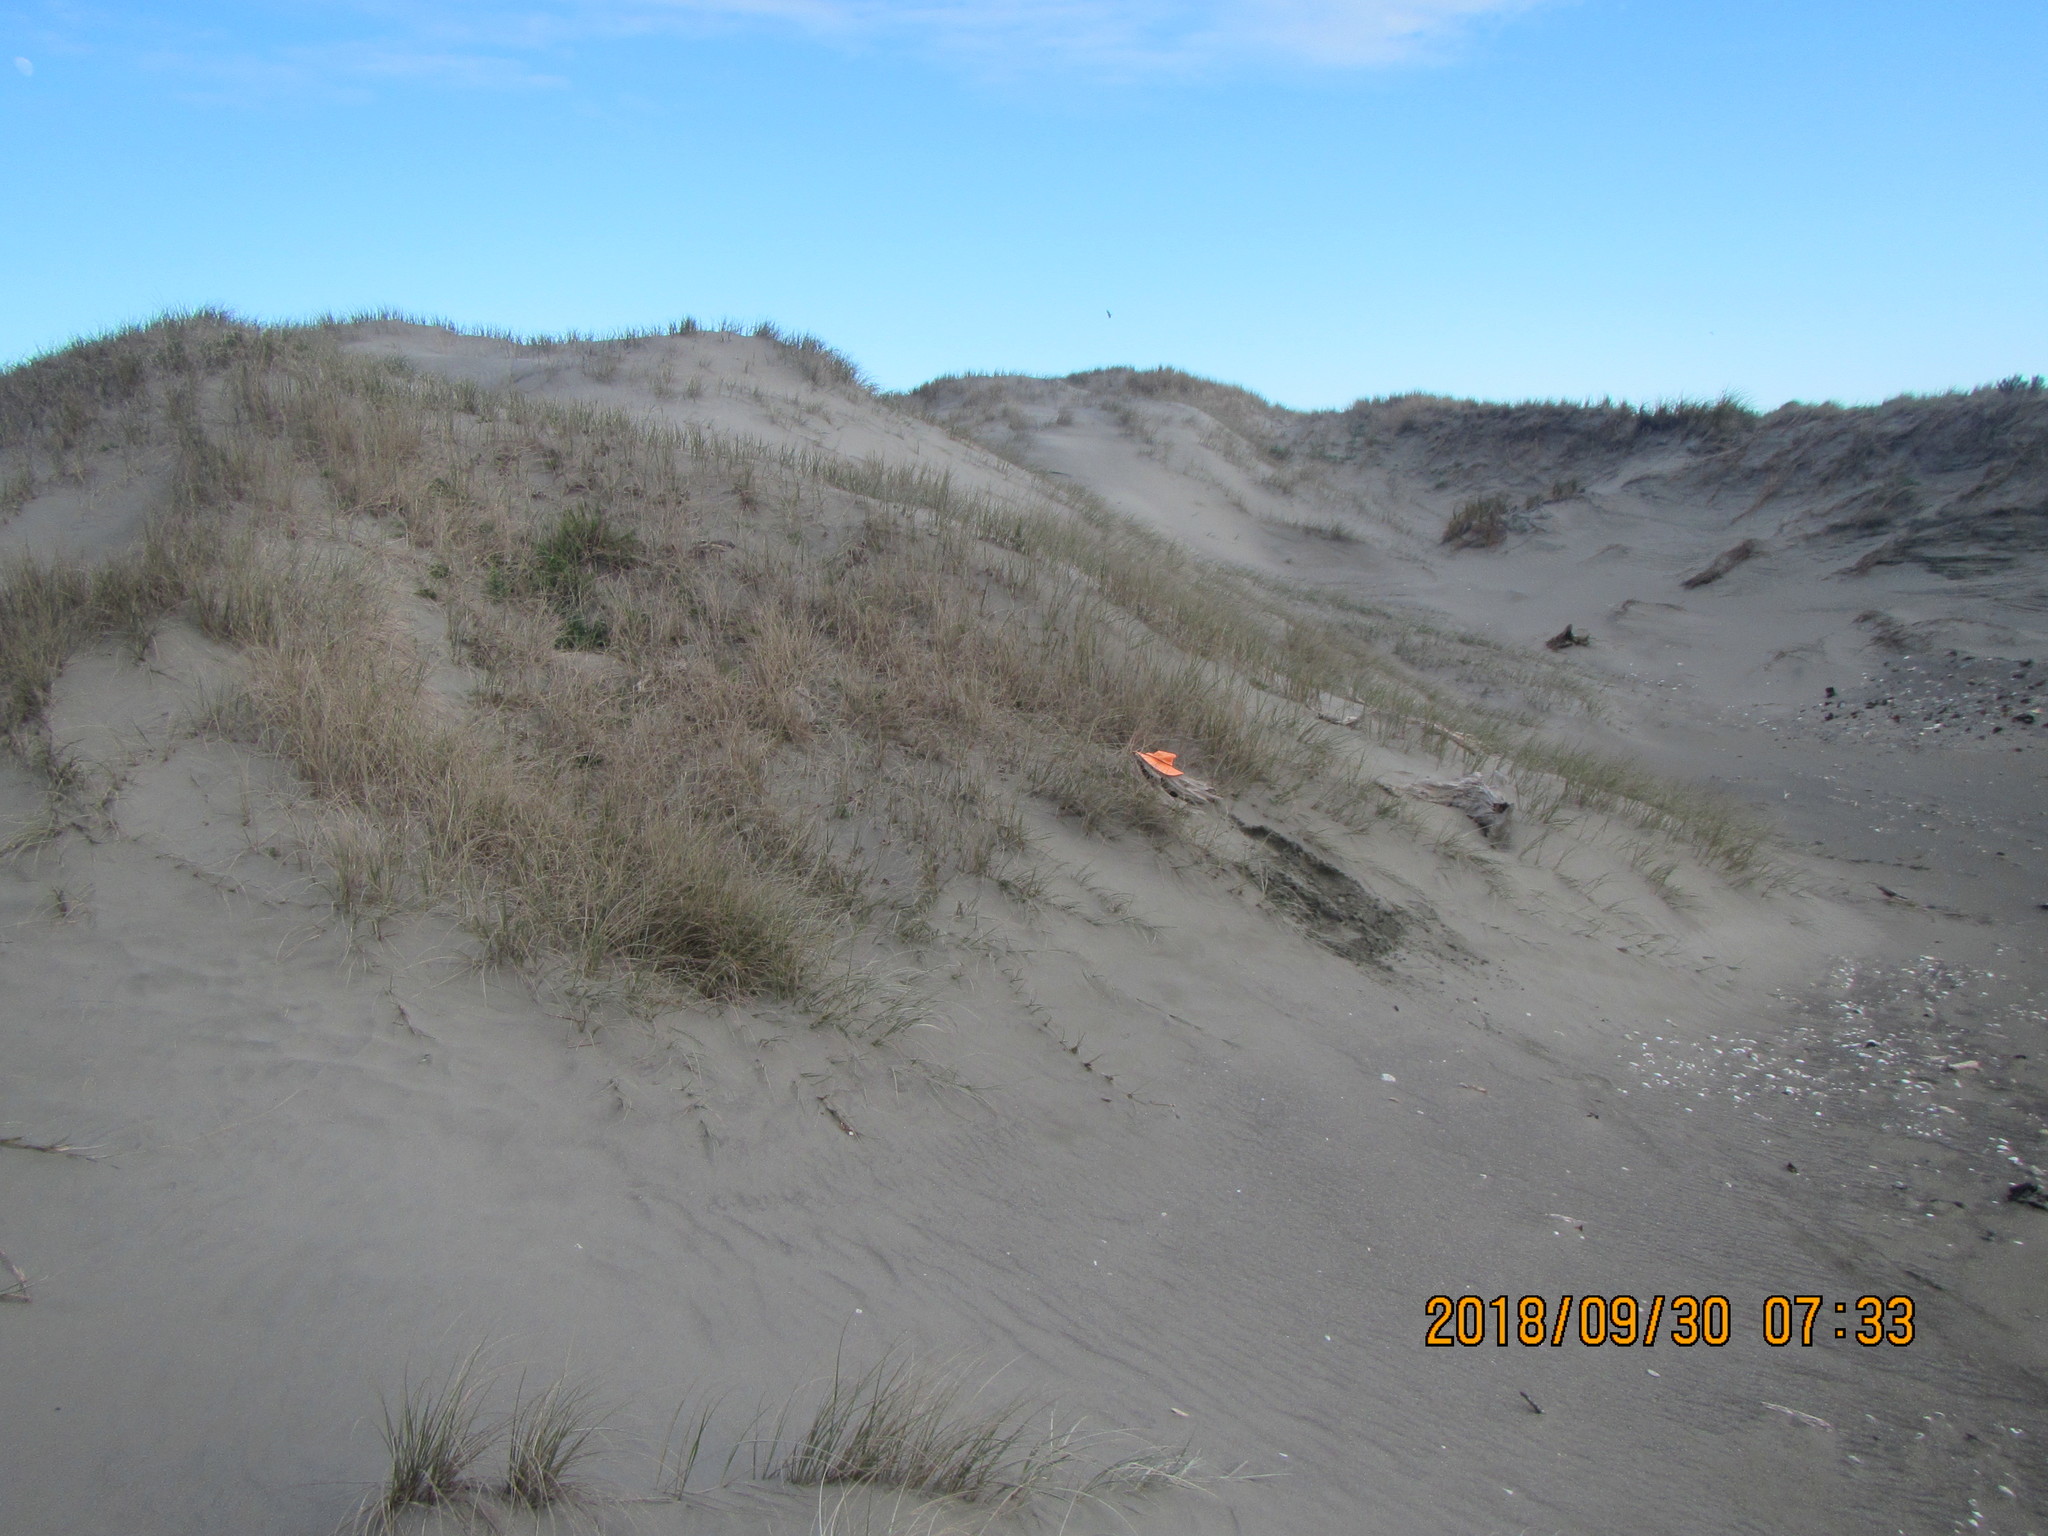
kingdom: Animalia
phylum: Arthropoda
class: Arachnida
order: Araneae
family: Theridiidae
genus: Steatoda
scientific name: Steatoda capensis
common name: Cobweb weaver
